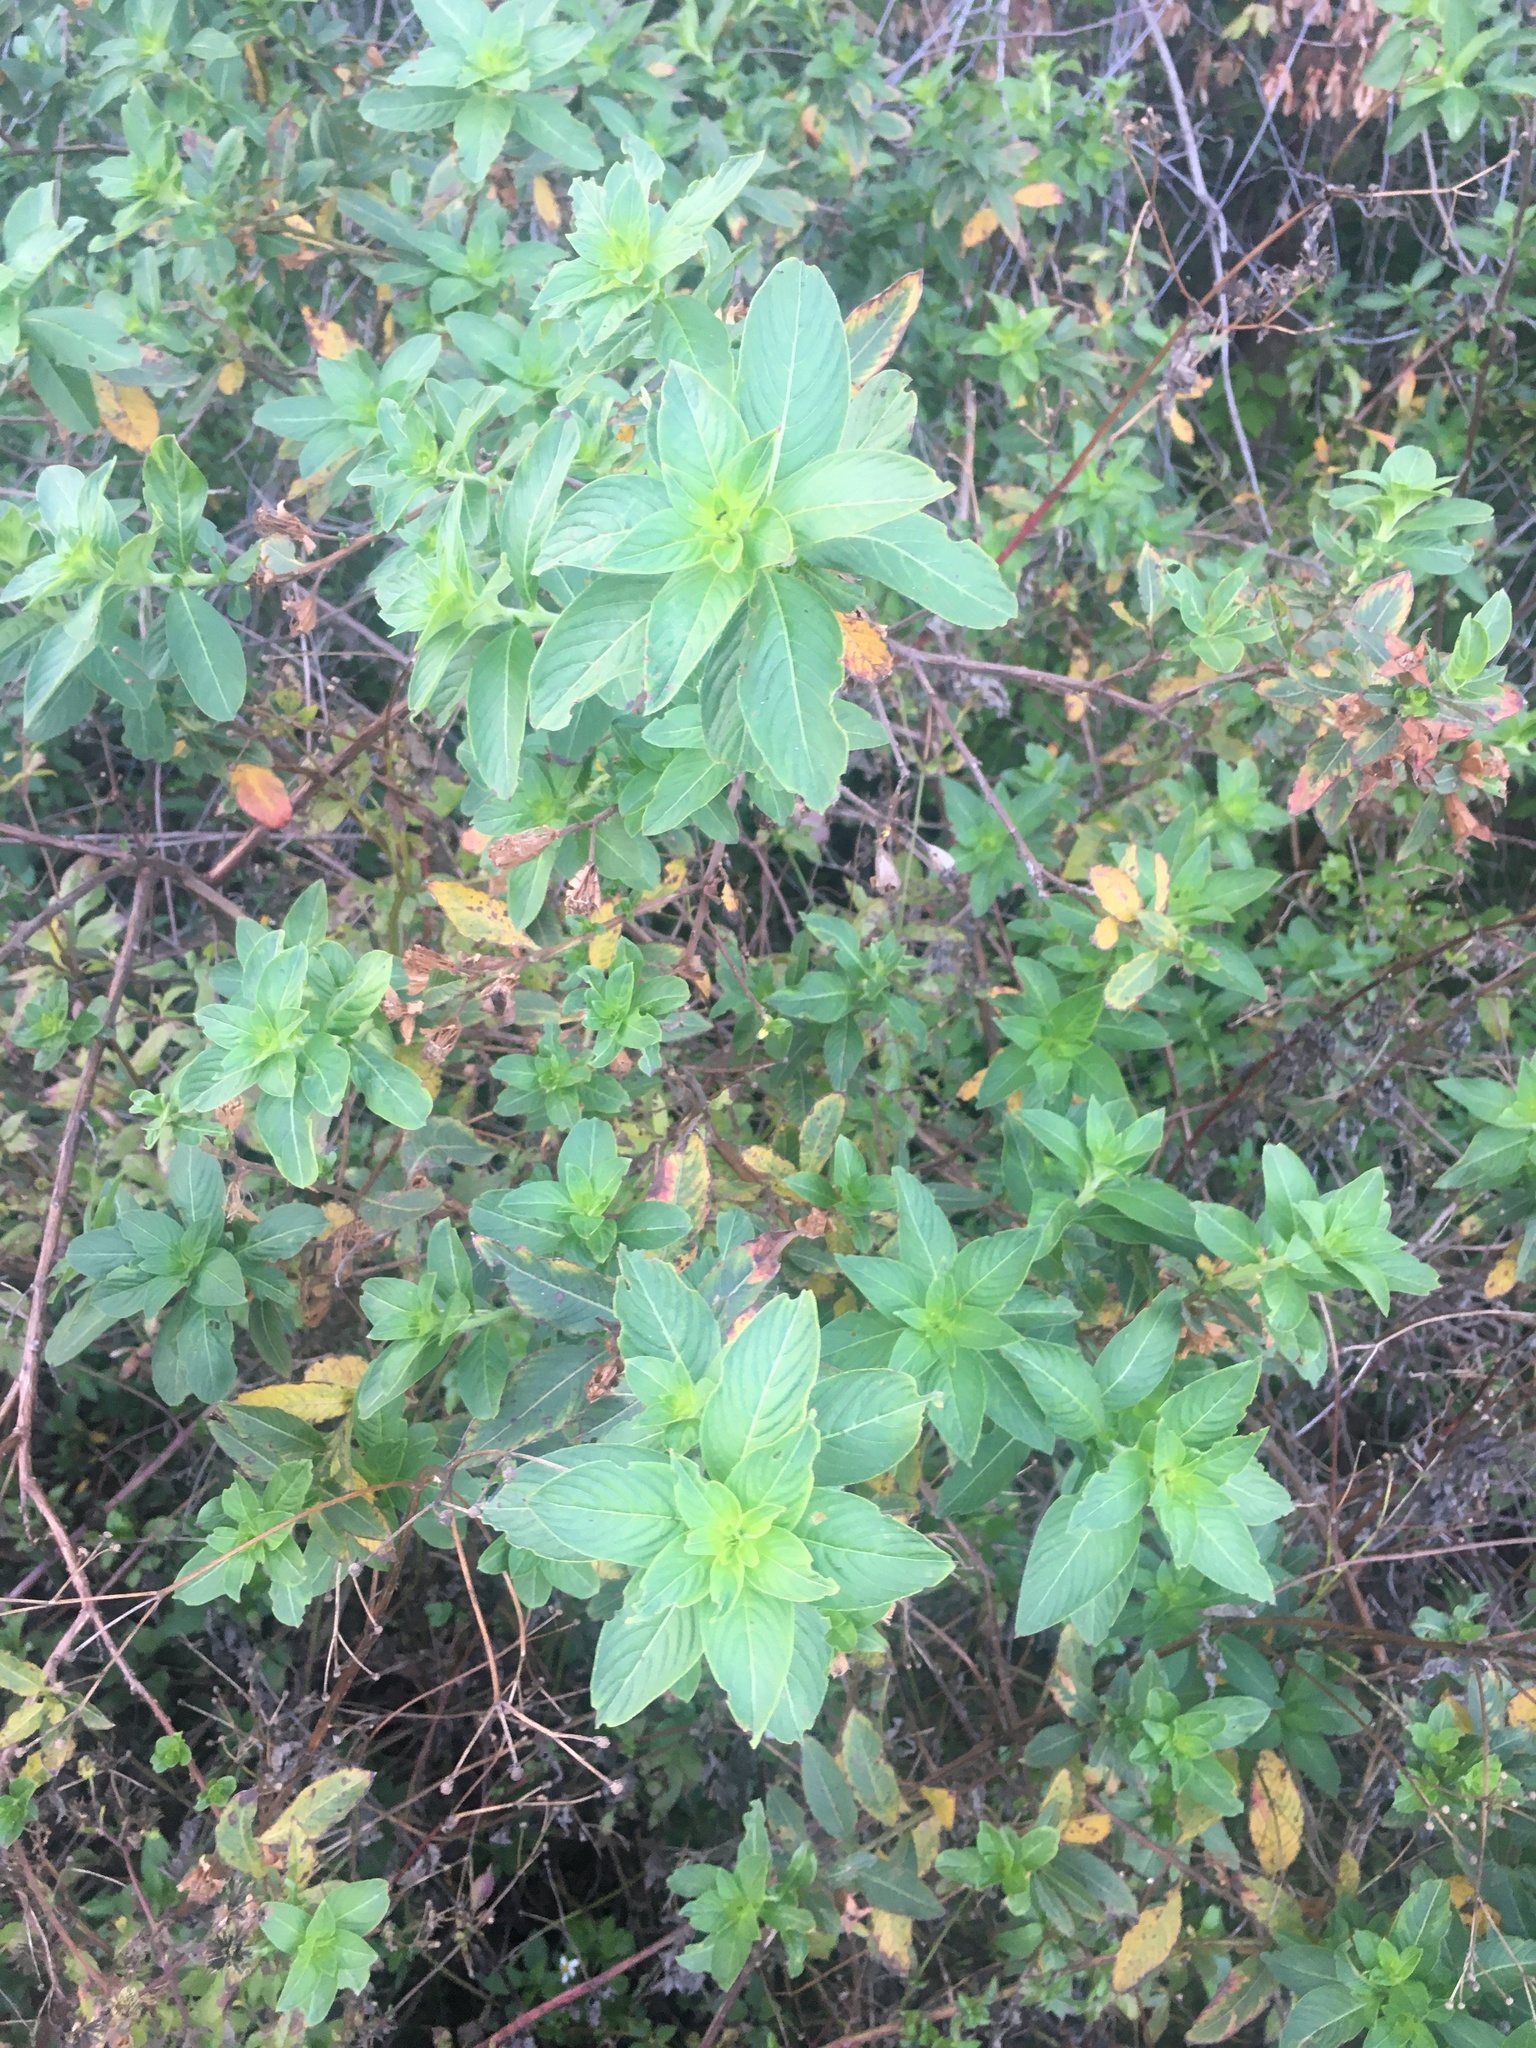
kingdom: Plantae
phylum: Tracheophyta
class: Magnoliopsida
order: Myrtales
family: Onagraceae
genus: Ludwigia
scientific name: Ludwigia peruviana
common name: Peruvian primrose-willow
